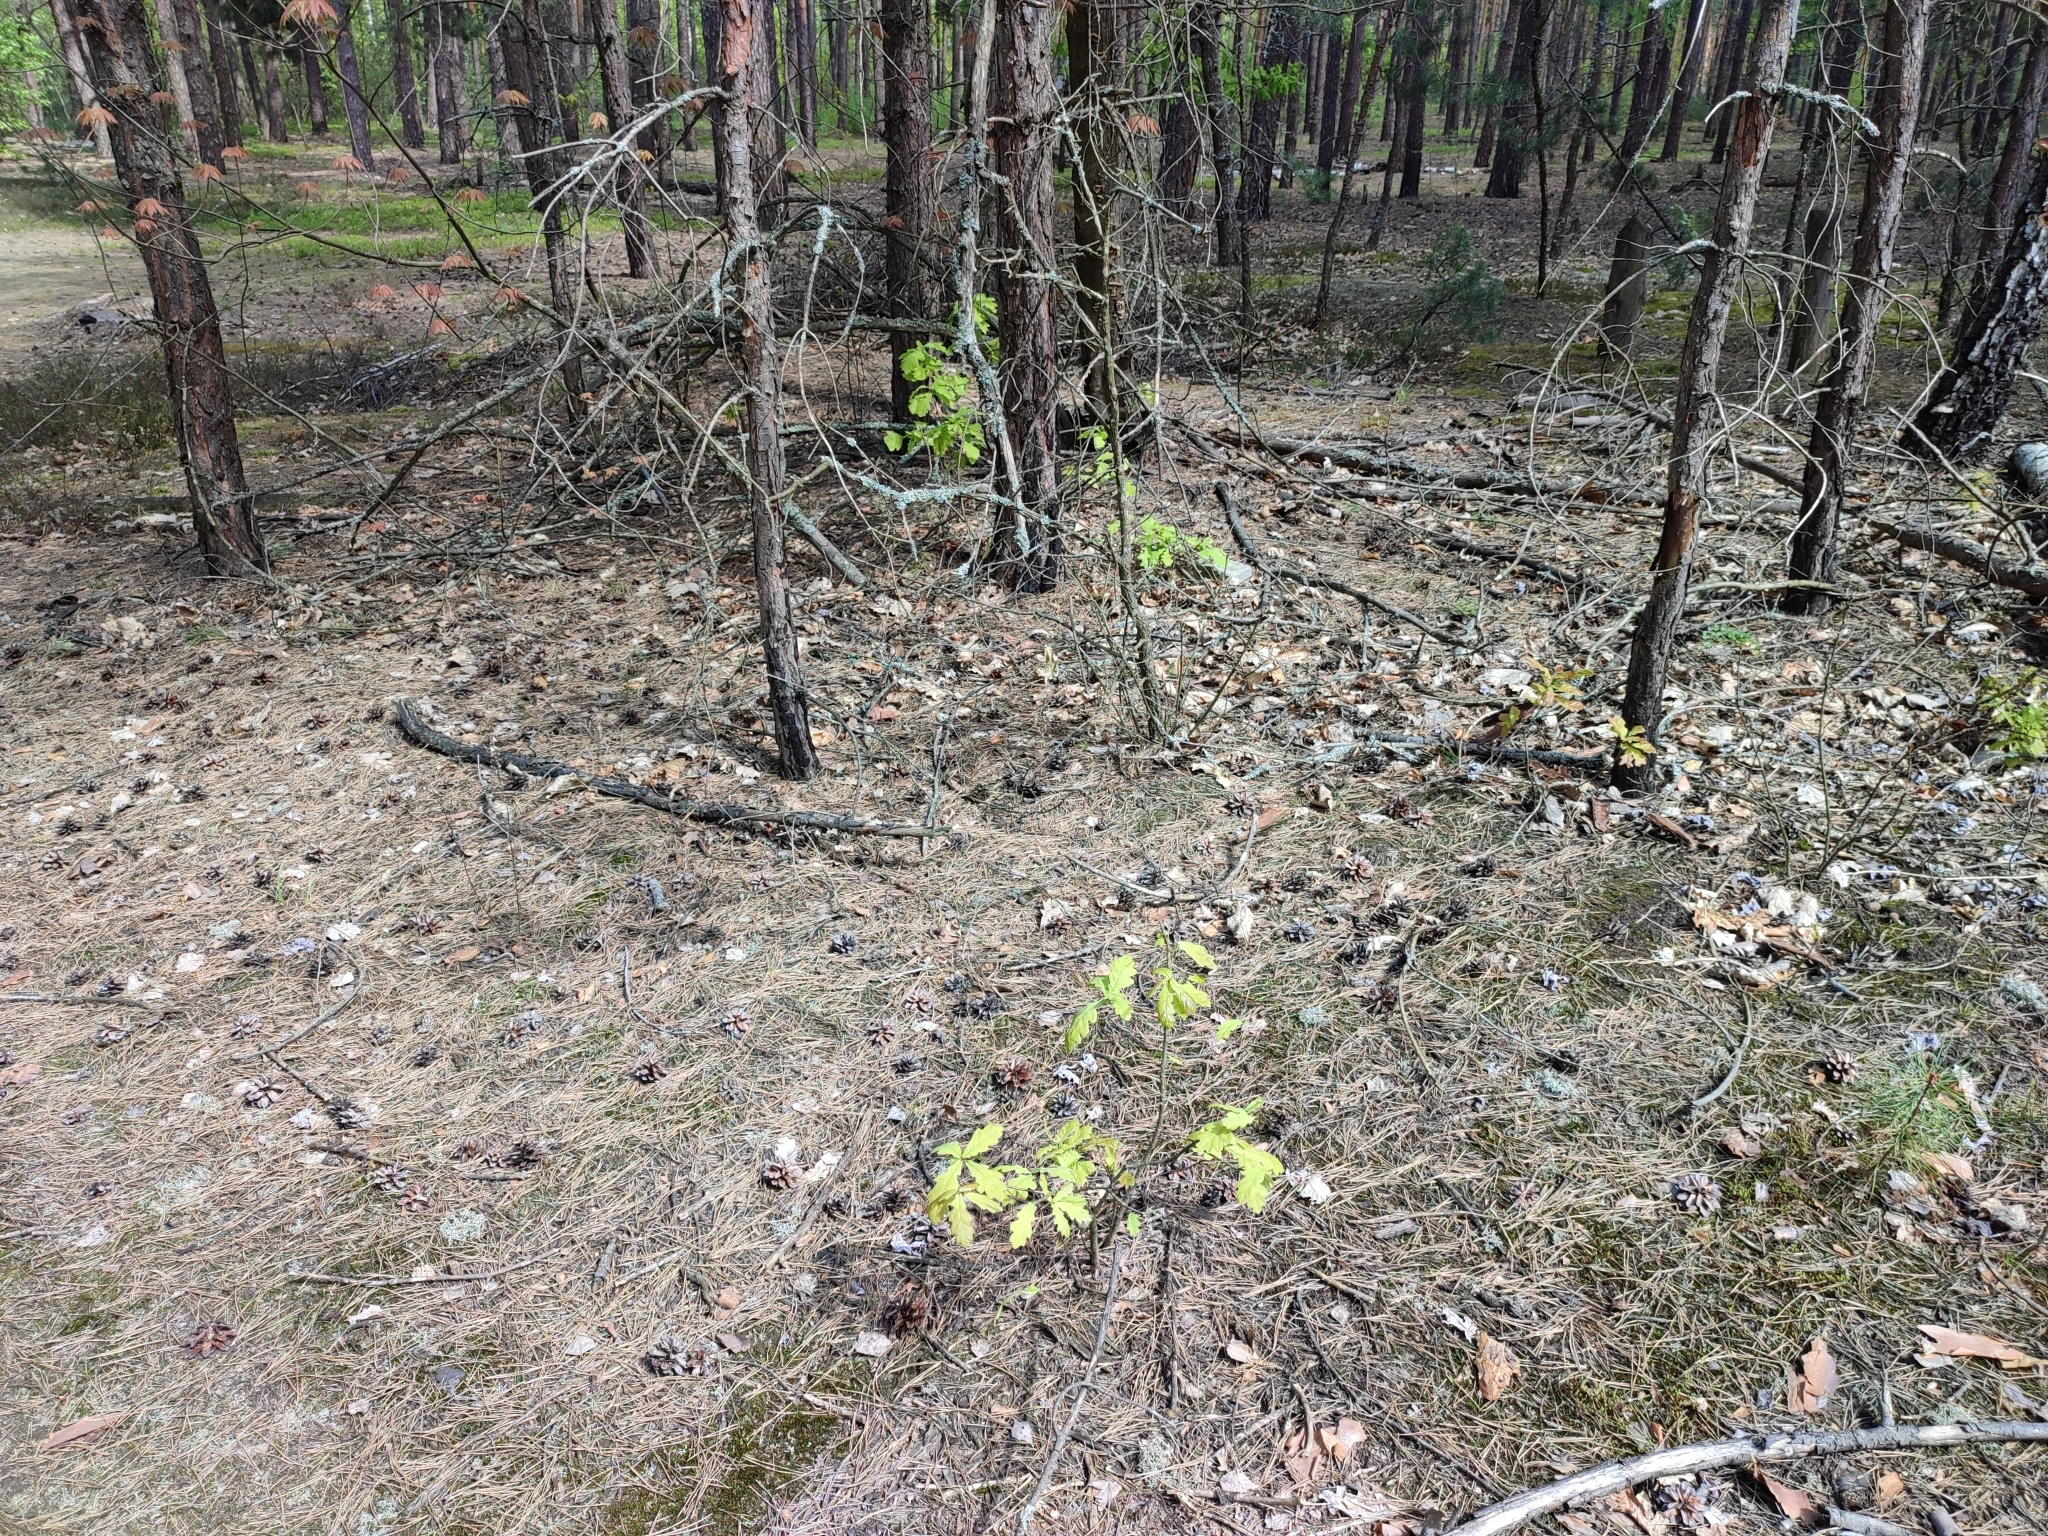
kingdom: Plantae
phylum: Tracheophyta
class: Magnoliopsida
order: Fagales
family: Fagaceae
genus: Quercus
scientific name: Quercus robur
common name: Pedunculate oak
